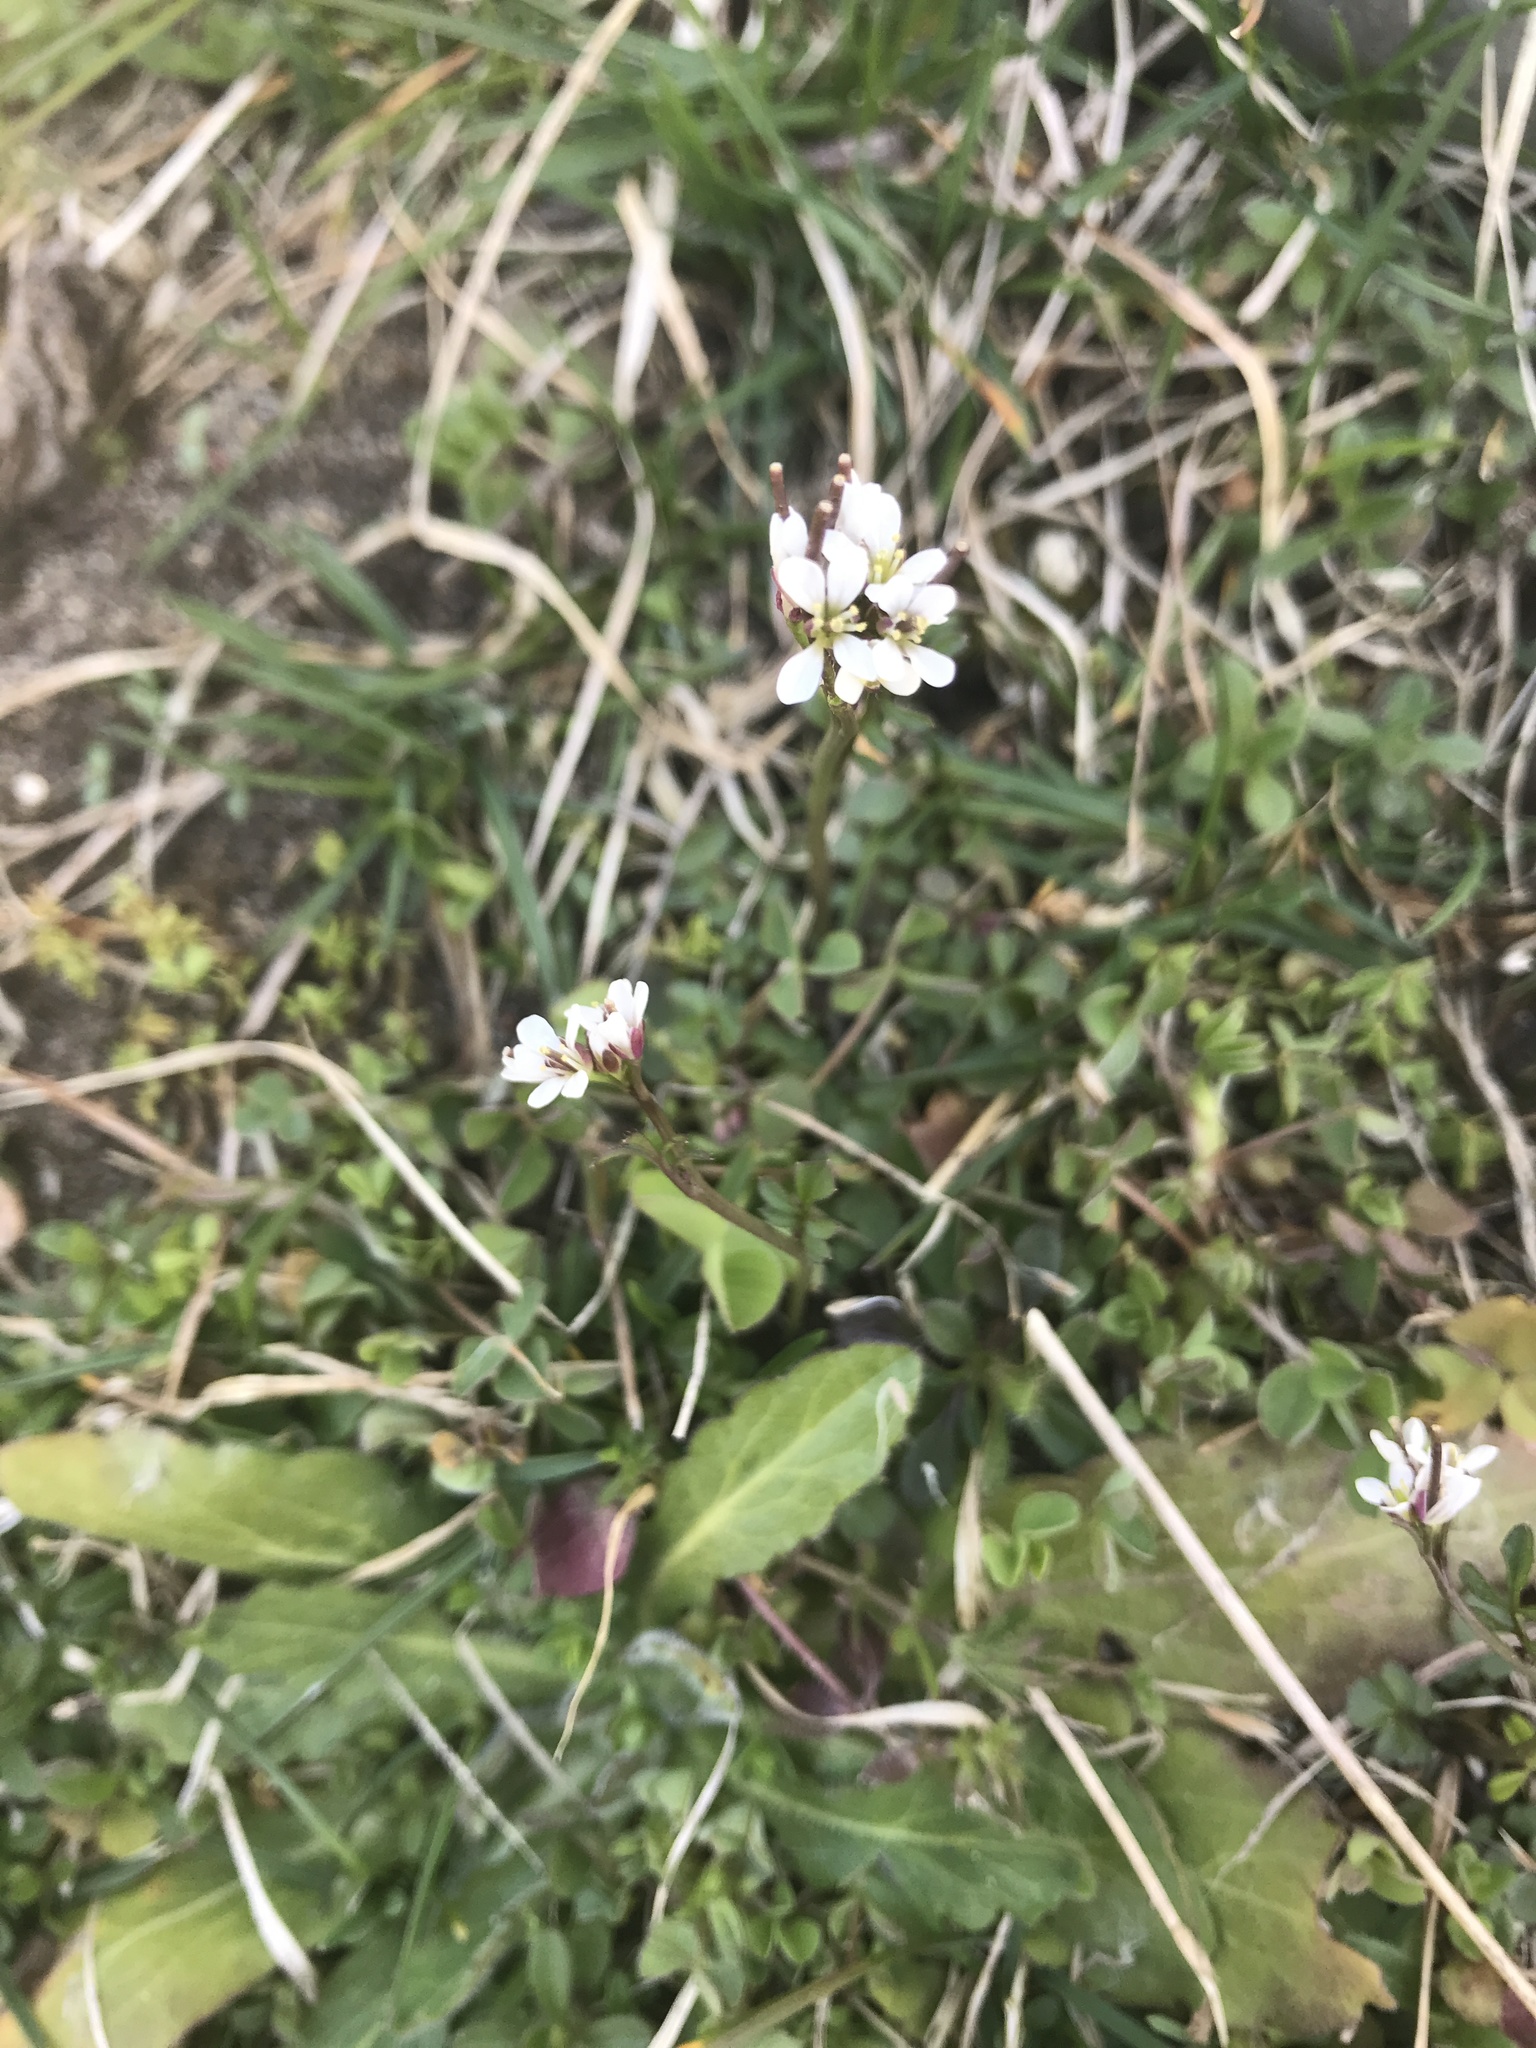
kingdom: Plantae
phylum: Tracheophyta
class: Magnoliopsida
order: Brassicales
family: Brassicaceae
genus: Cardamine
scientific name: Cardamine hirsuta
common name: Hairy bittercress
